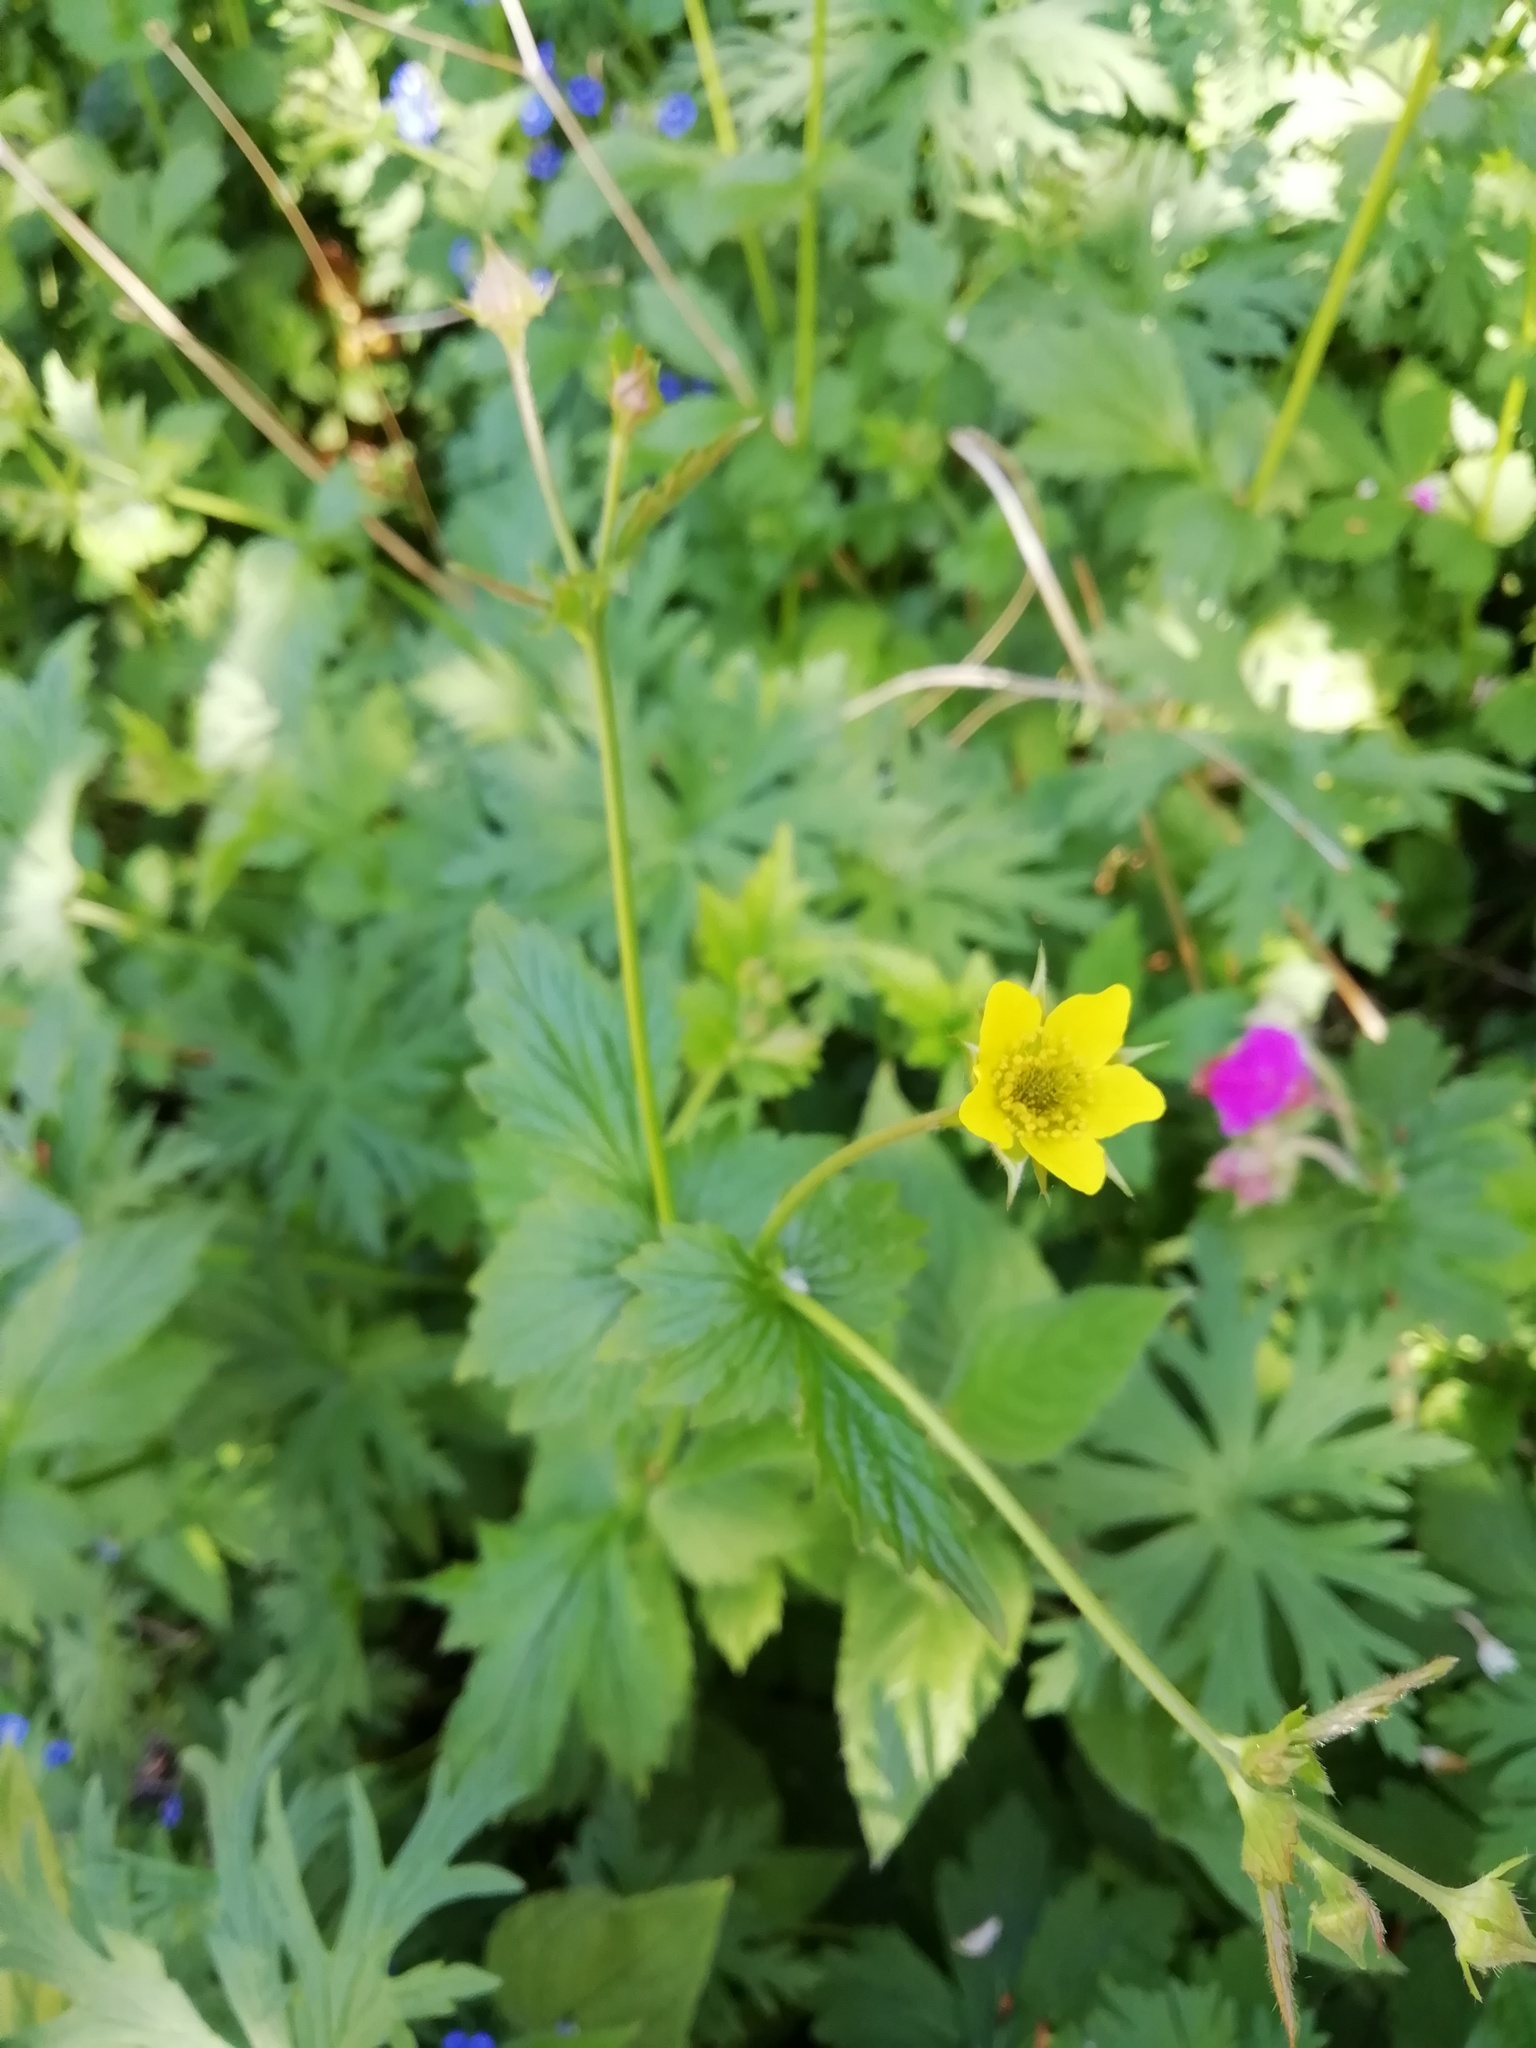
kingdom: Plantae
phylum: Tracheophyta
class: Magnoliopsida
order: Rosales
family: Rosaceae
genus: Geum
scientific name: Geum urbanum
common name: Wood avens
